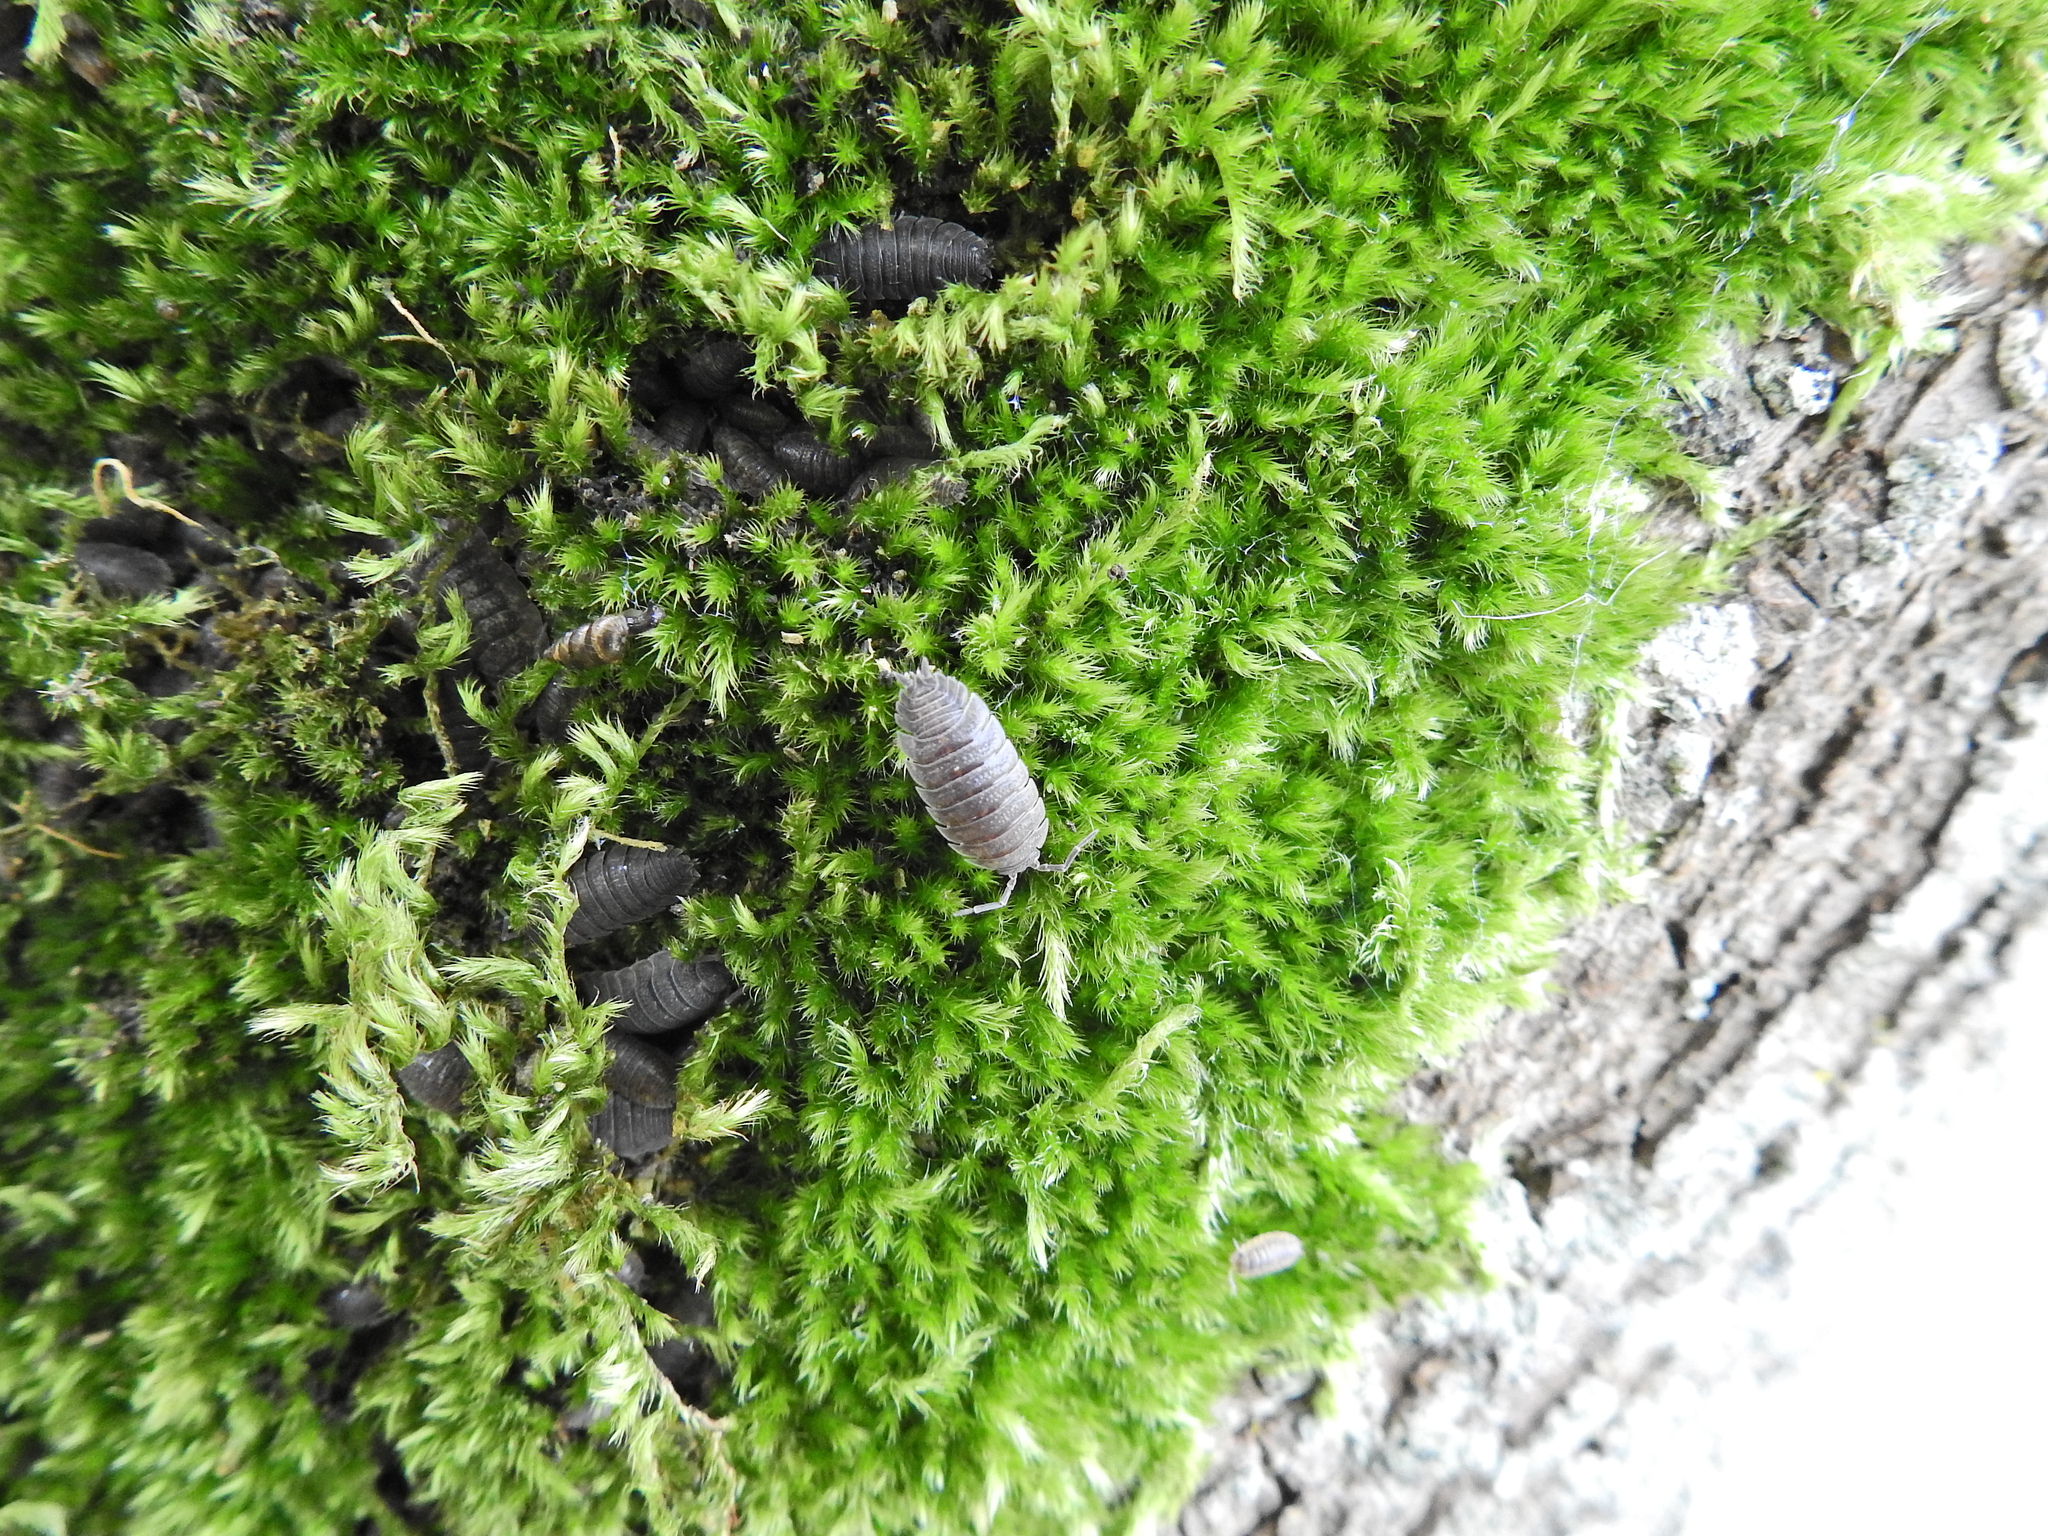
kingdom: Animalia
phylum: Arthropoda
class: Malacostraca
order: Isopoda
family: Porcellionidae
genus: Porcellio
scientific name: Porcellio scaber
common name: Common rough woodlouse
